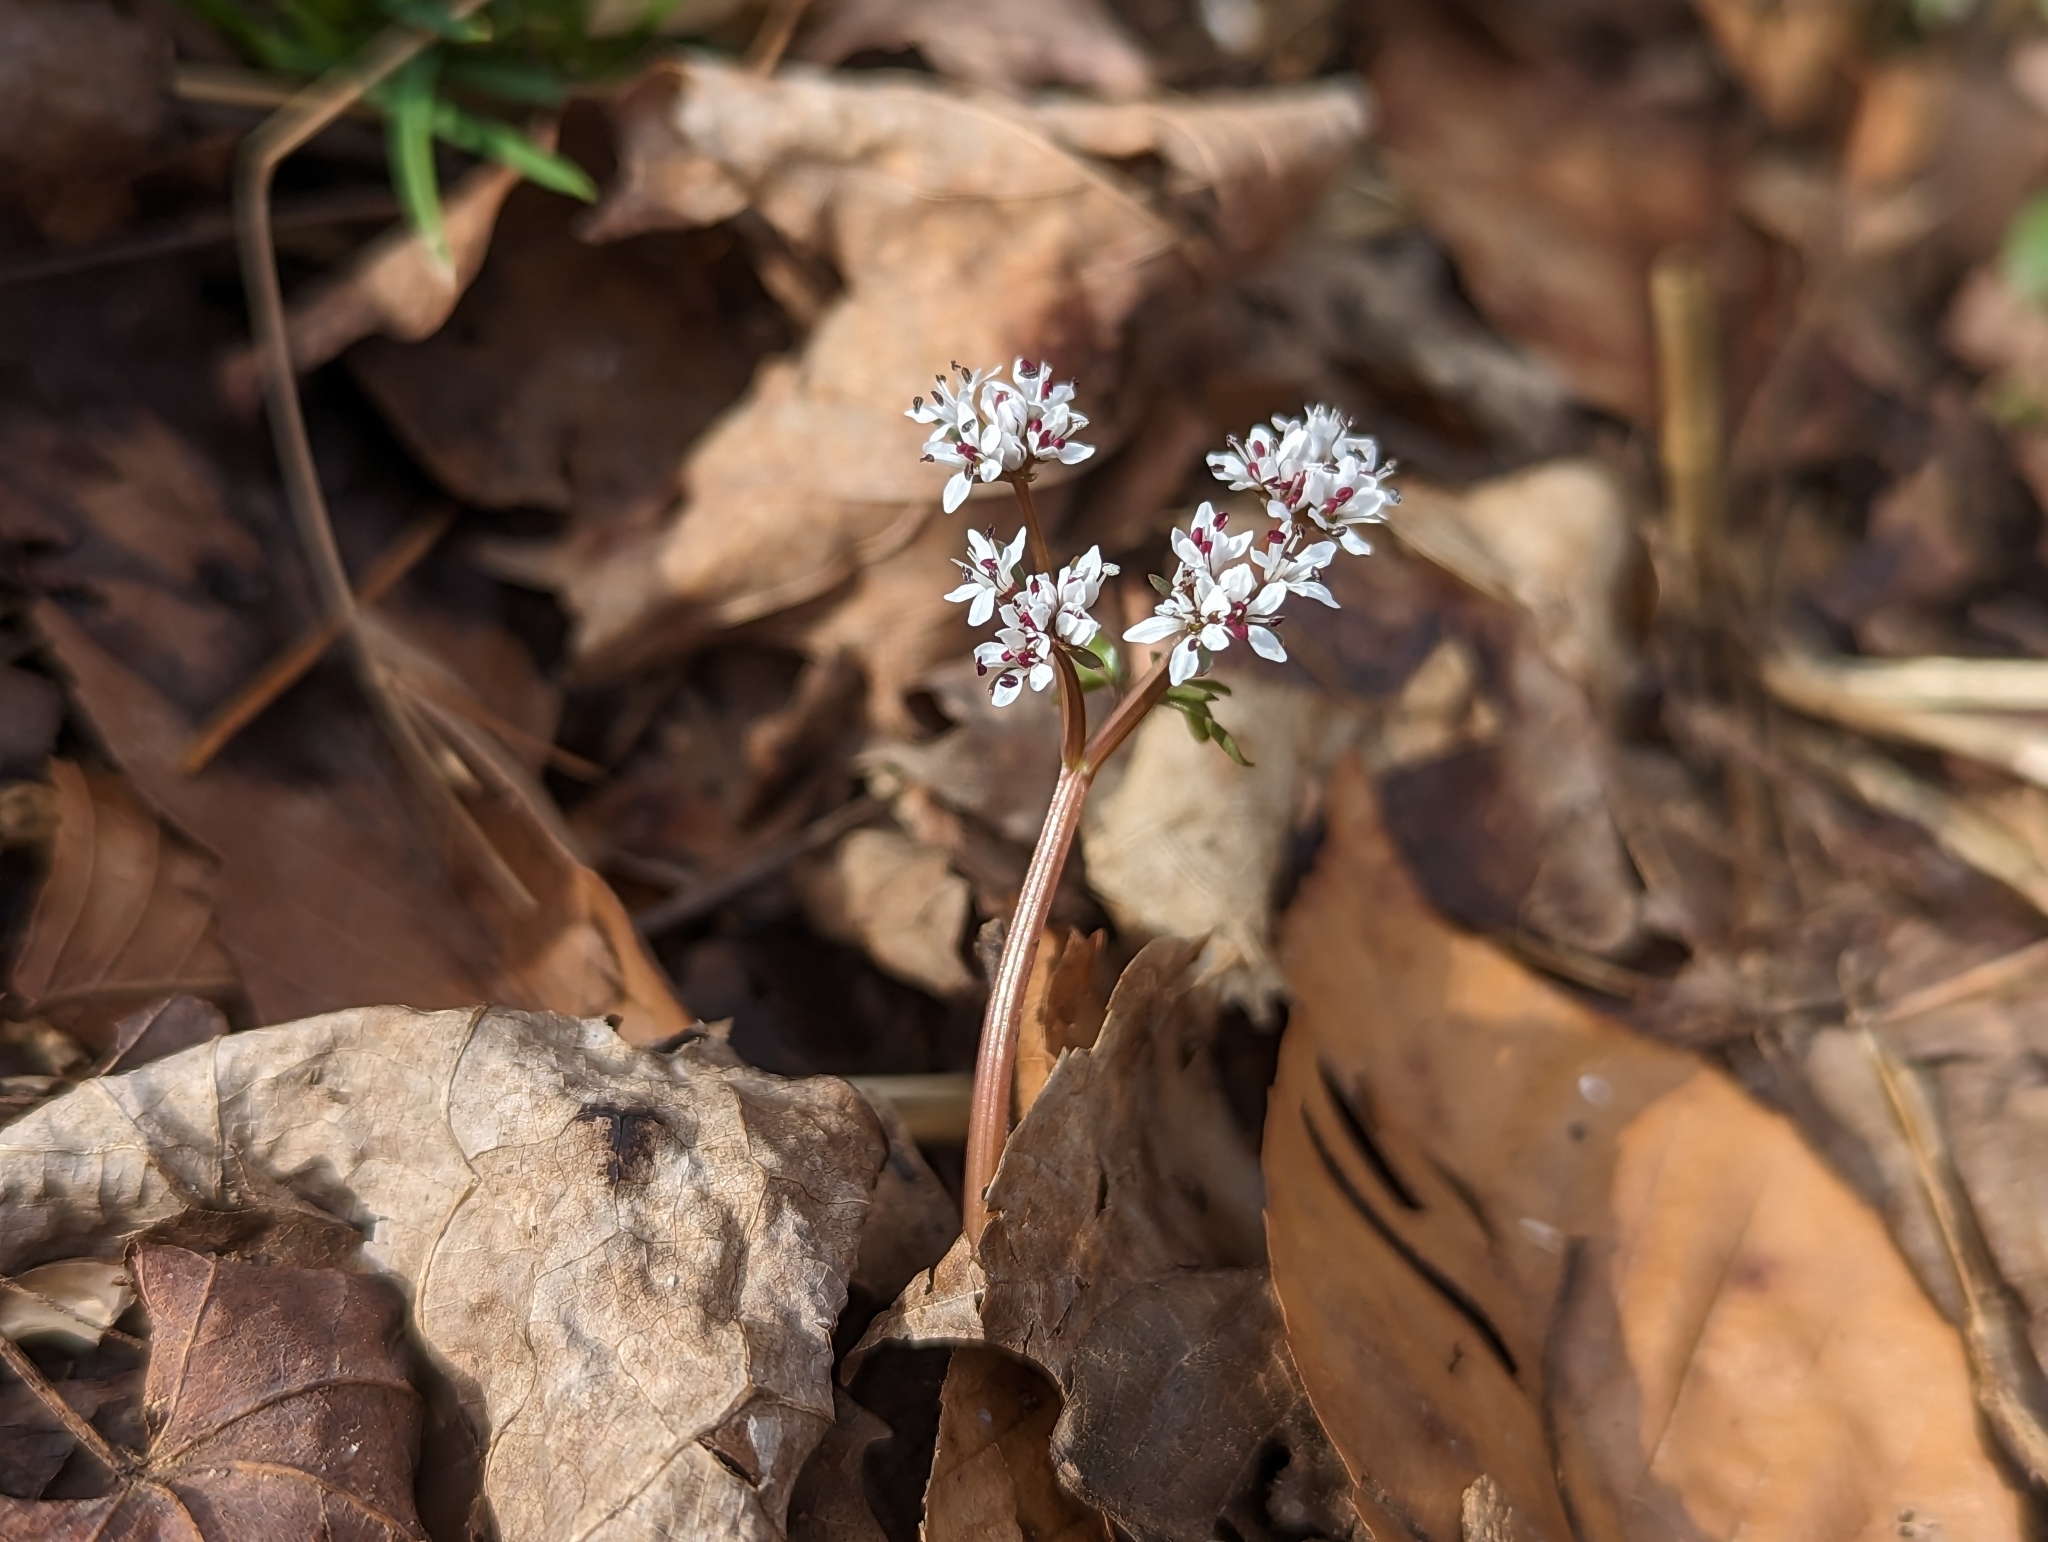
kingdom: Plantae
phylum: Tracheophyta
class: Magnoliopsida
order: Apiales
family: Apiaceae
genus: Erigenia
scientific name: Erigenia bulbosa
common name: Pepper-and-salt
